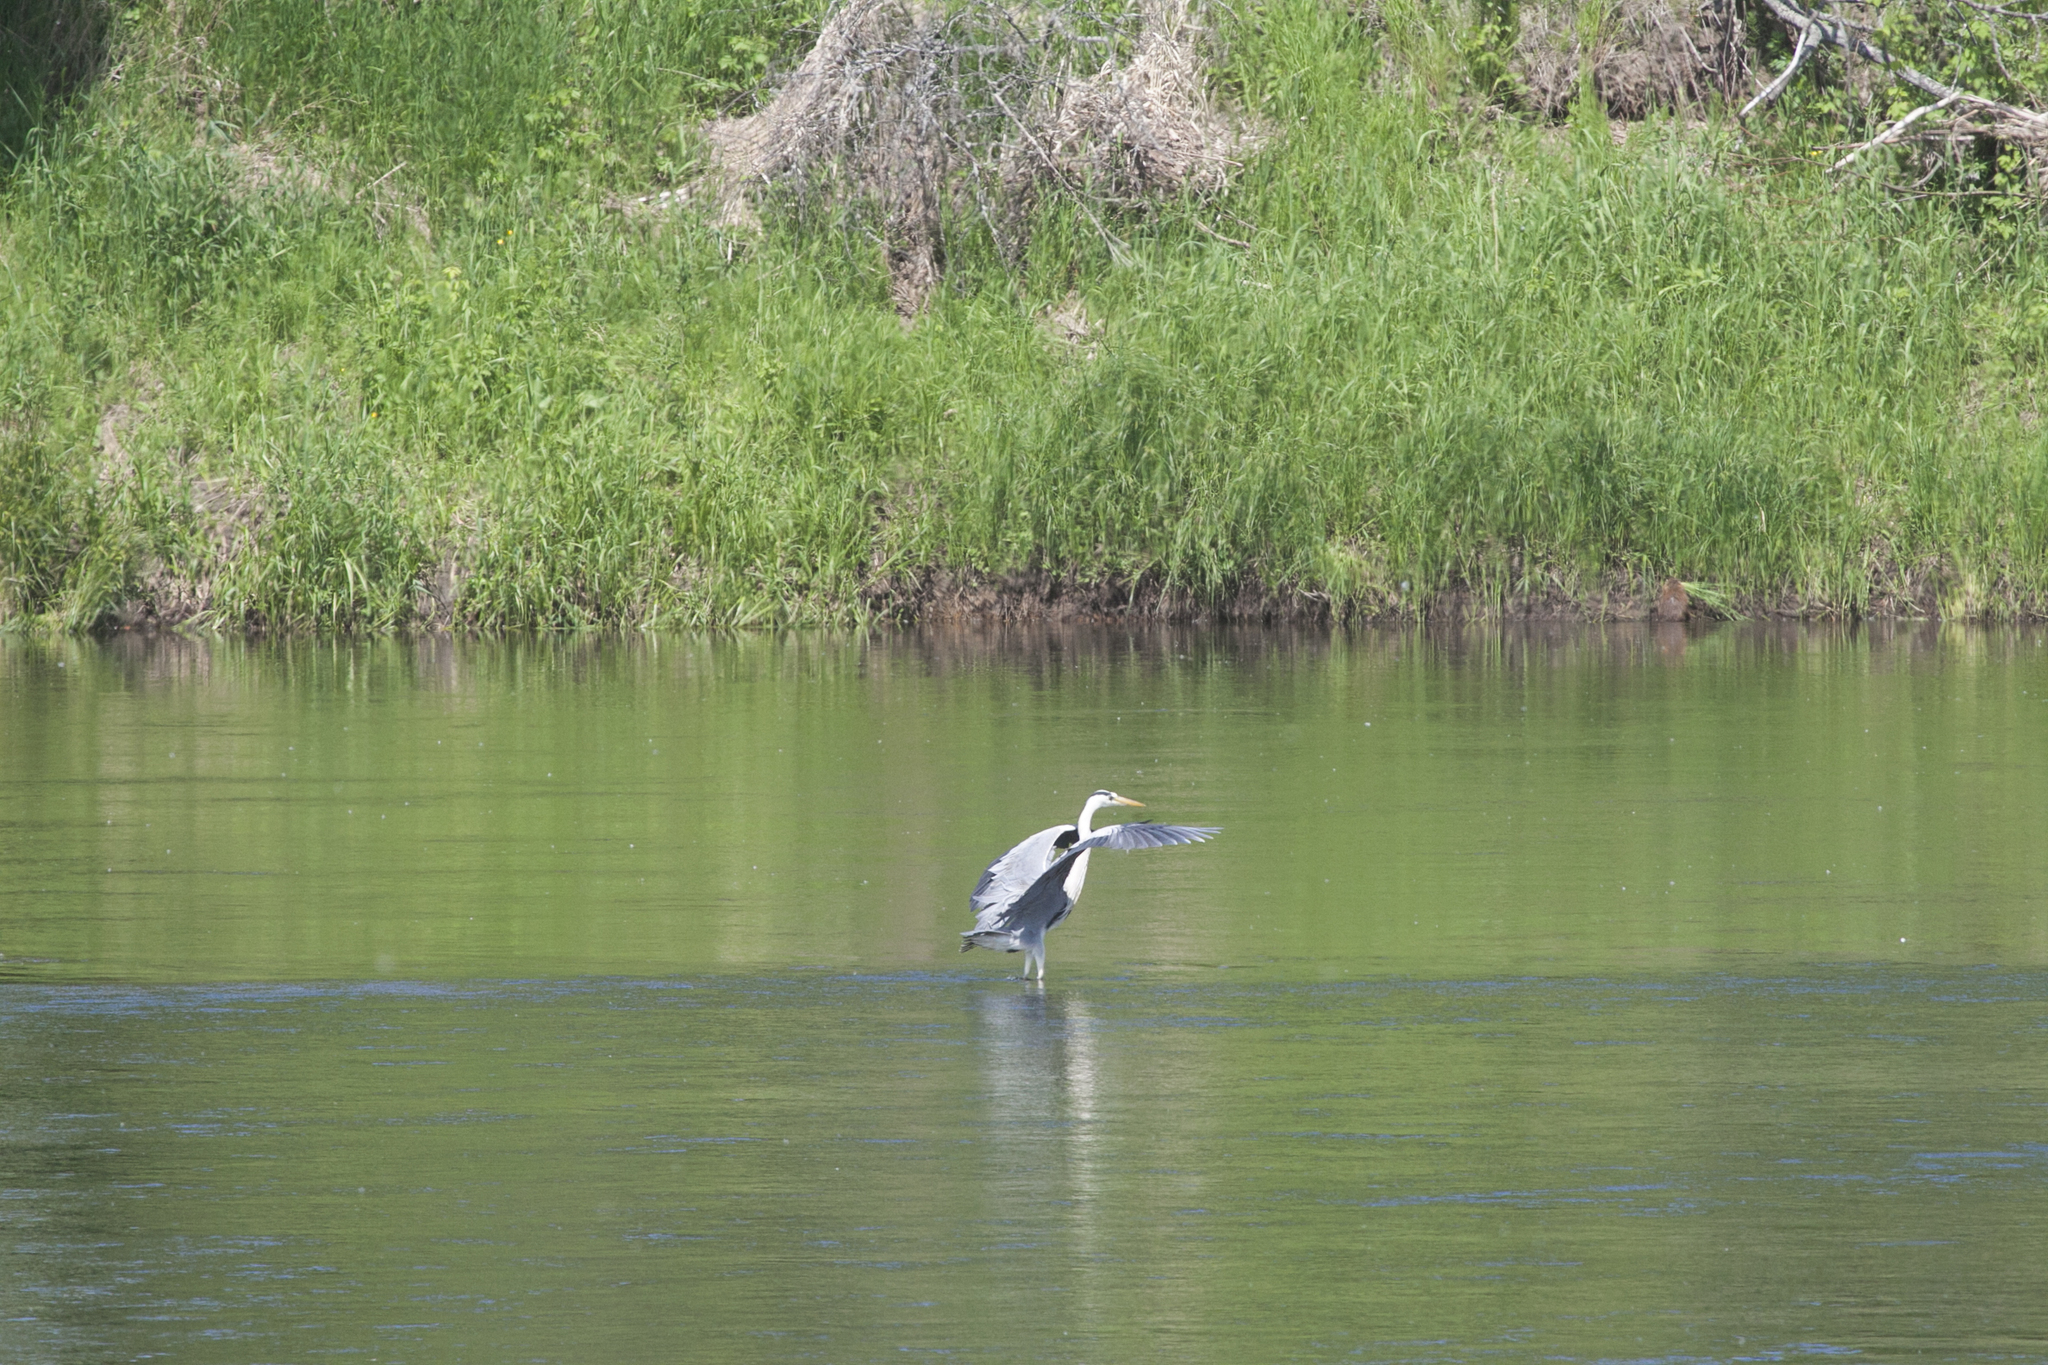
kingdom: Animalia
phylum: Chordata
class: Aves
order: Pelecaniformes
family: Ardeidae
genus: Ardea
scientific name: Ardea cinerea
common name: Grey heron
